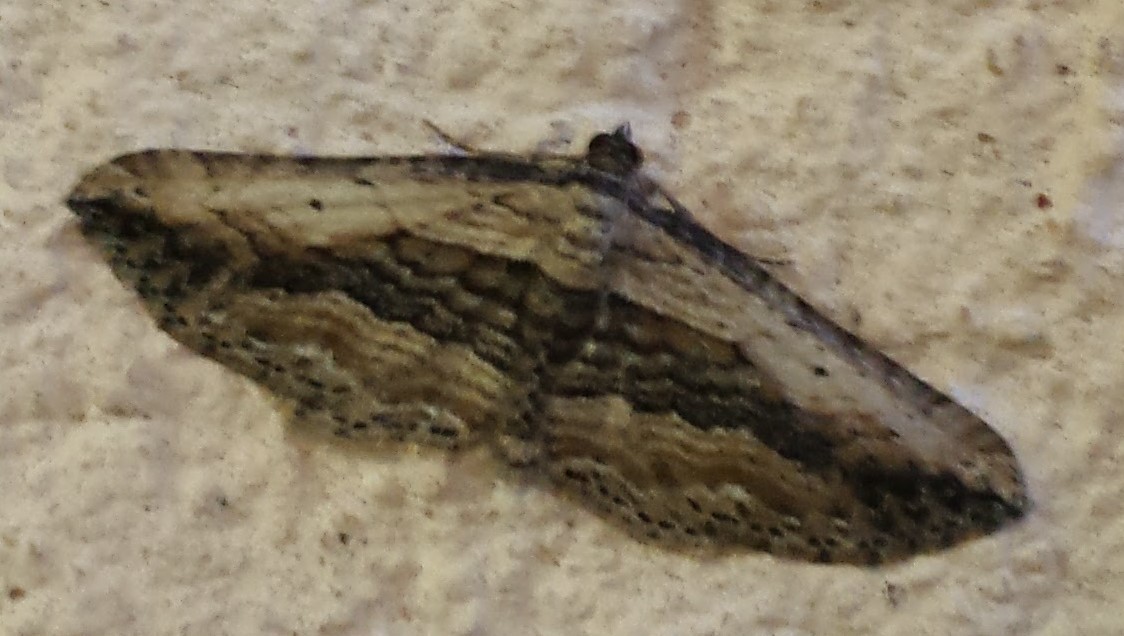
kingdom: Animalia
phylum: Arthropoda
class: Insecta
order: Lepidoptera
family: Geometridae
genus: Horisme
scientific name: Horisme vitalbata
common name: Small waved umber
